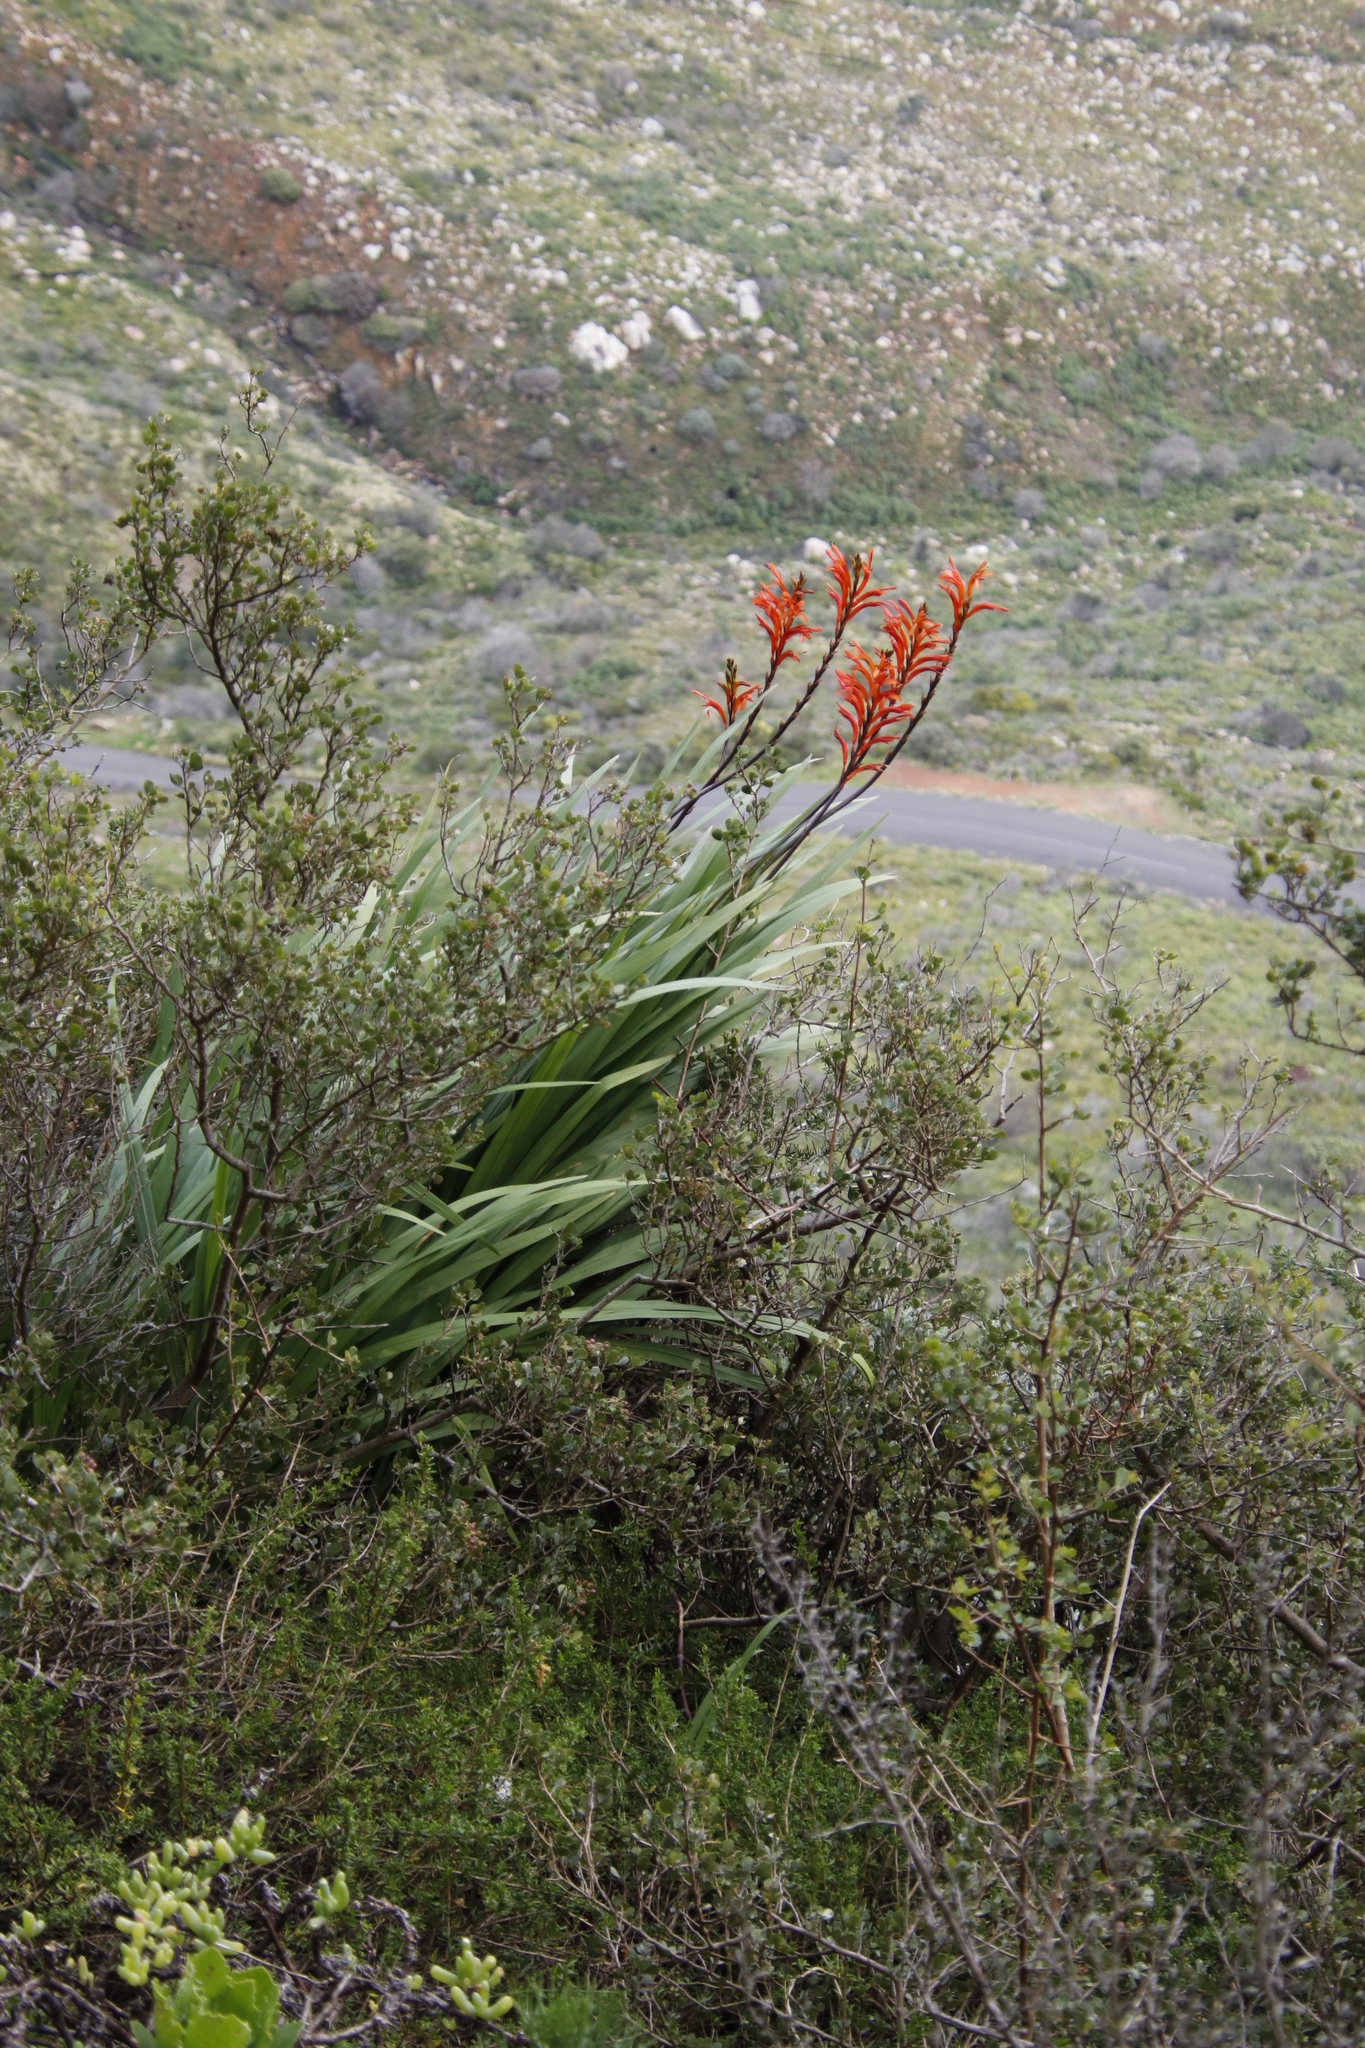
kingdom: Plantae
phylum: Tracheophyta
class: Liliopsida
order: Asparagales
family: Iridaceae
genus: Chasmanthe
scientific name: Chasmanthe floribunda
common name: African cornflag
